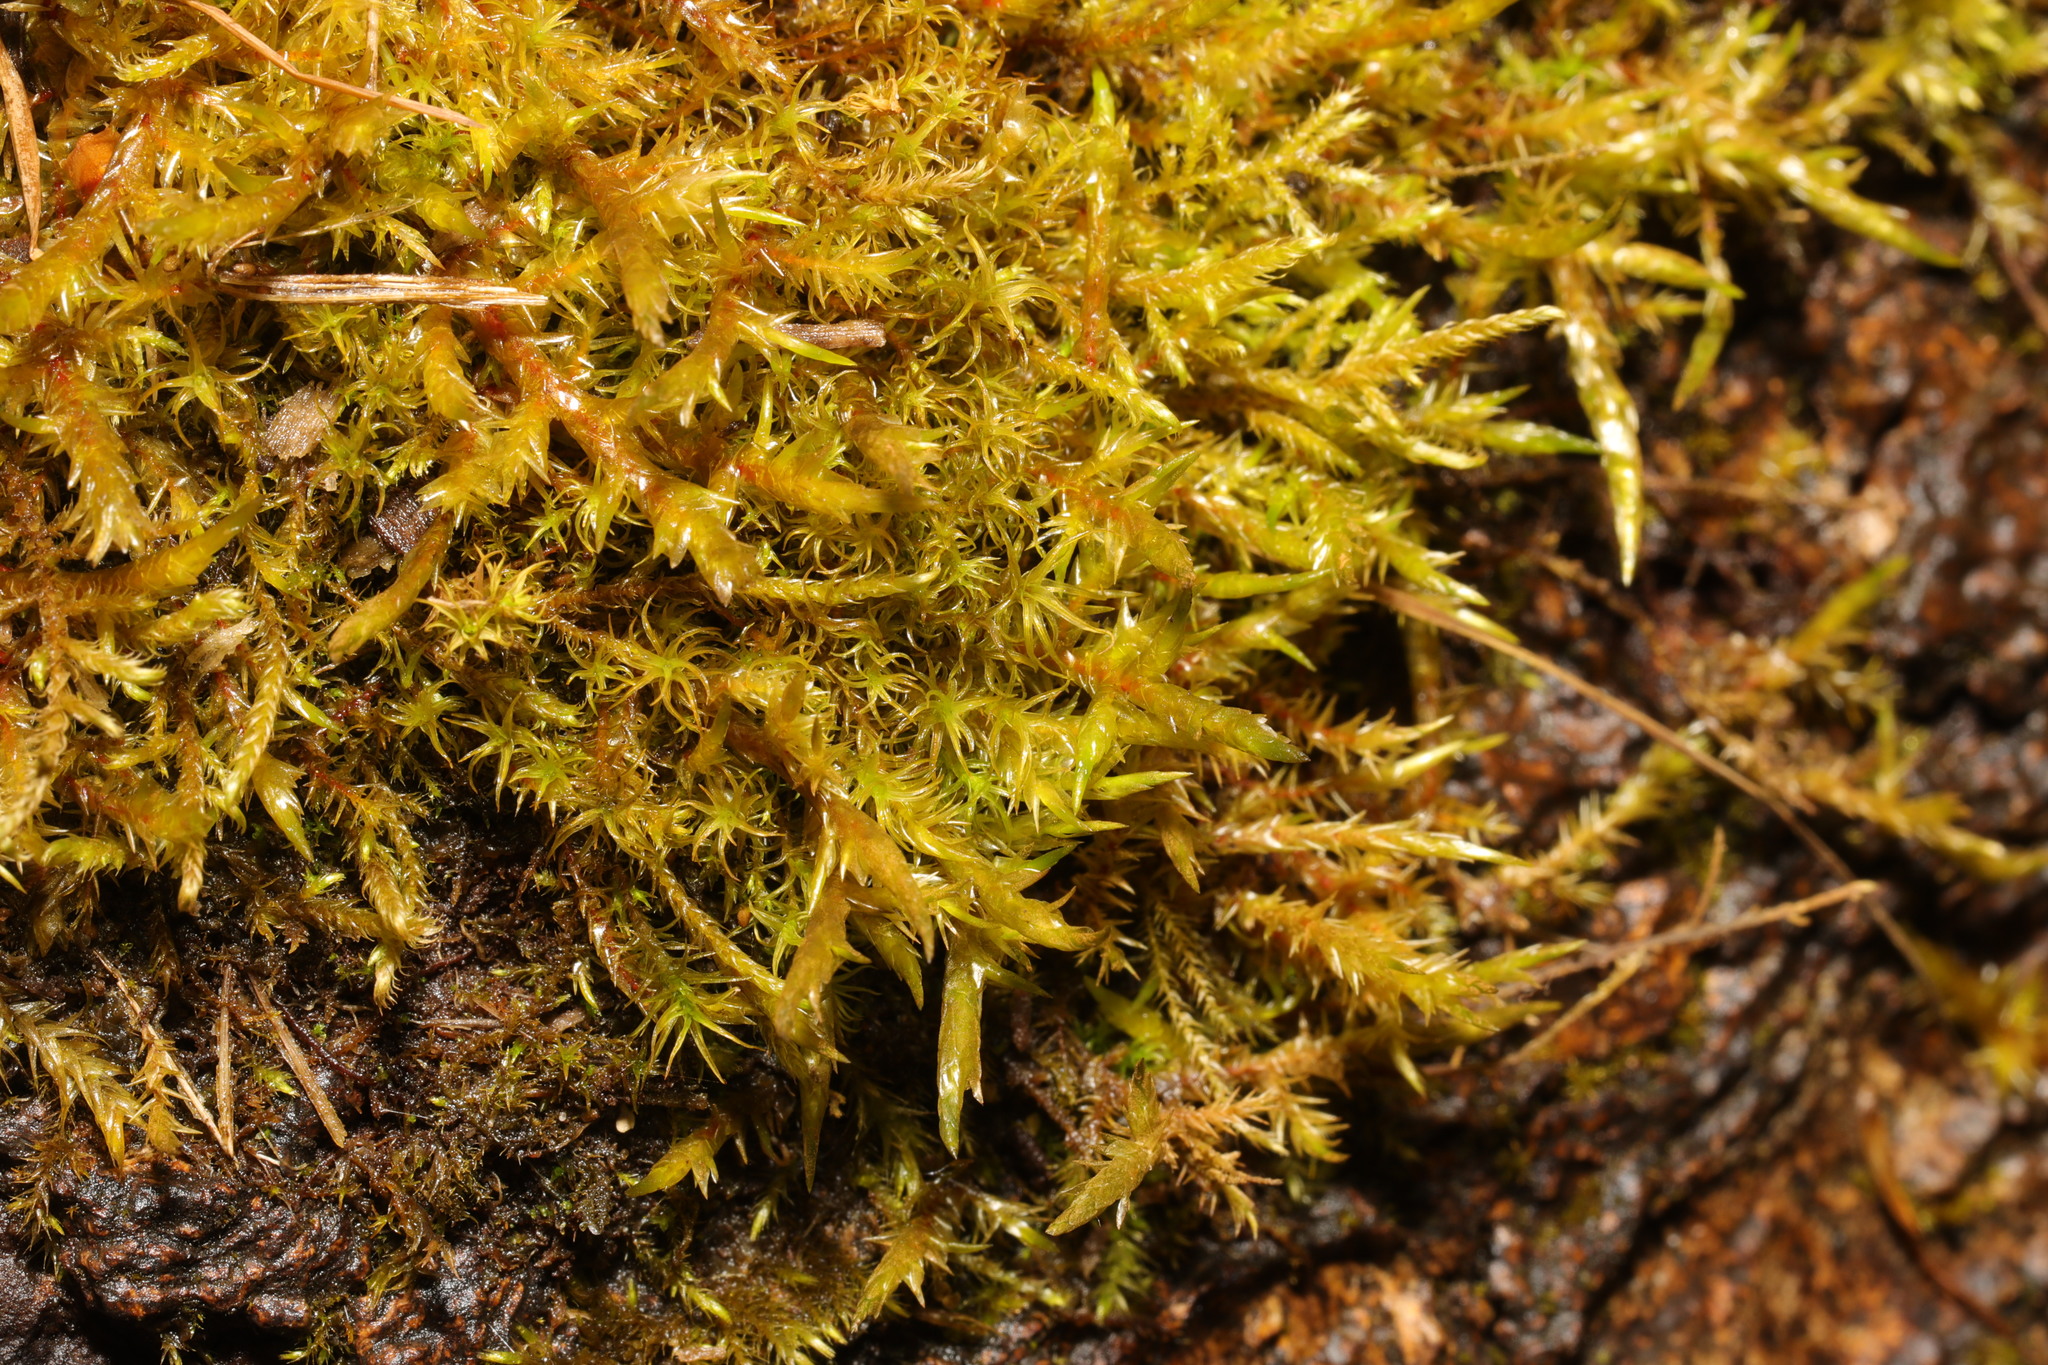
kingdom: Plantae
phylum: Bryophyta
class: Bryopsida
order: Hypnales
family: Pylaisiaceae
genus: Calliergonella
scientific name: Calliergonella cuspidata
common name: Common large wetland moss
